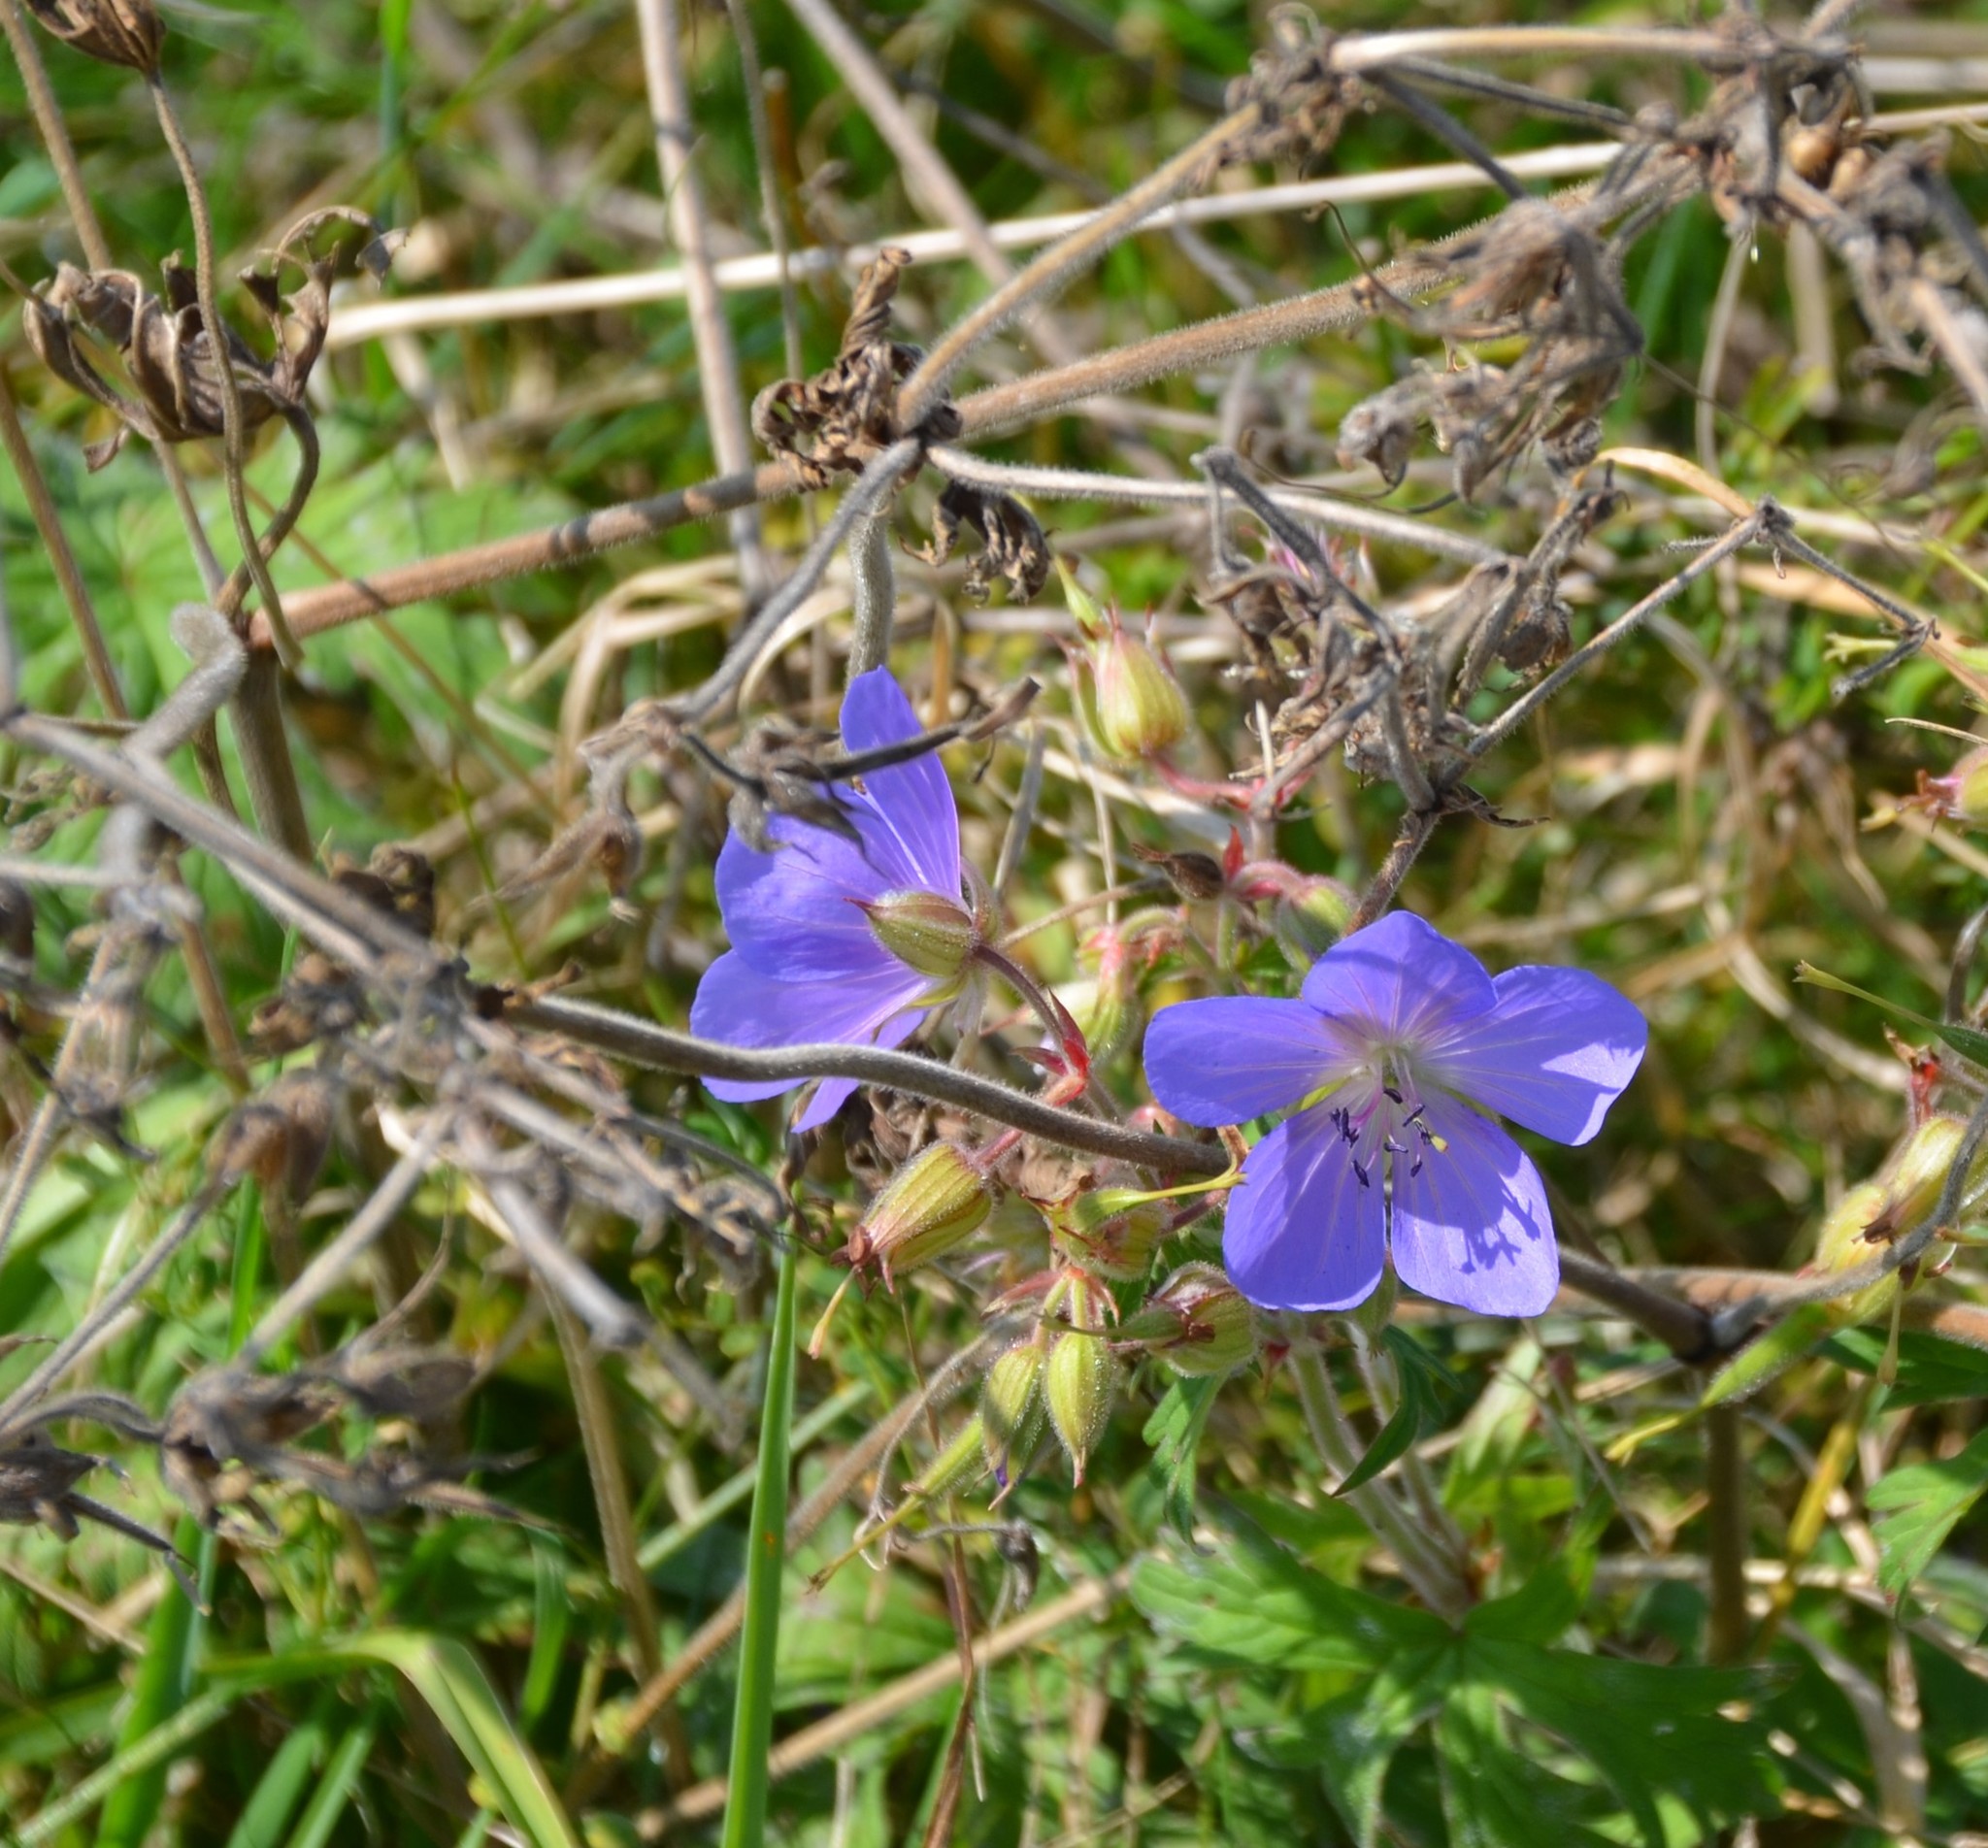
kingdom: Plantae
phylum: Tracheophyta
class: Magnoliopsida
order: Geraniales
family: Geraniaceae
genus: Geranium
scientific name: Geranium pratense
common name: Meadow crane's-bill
